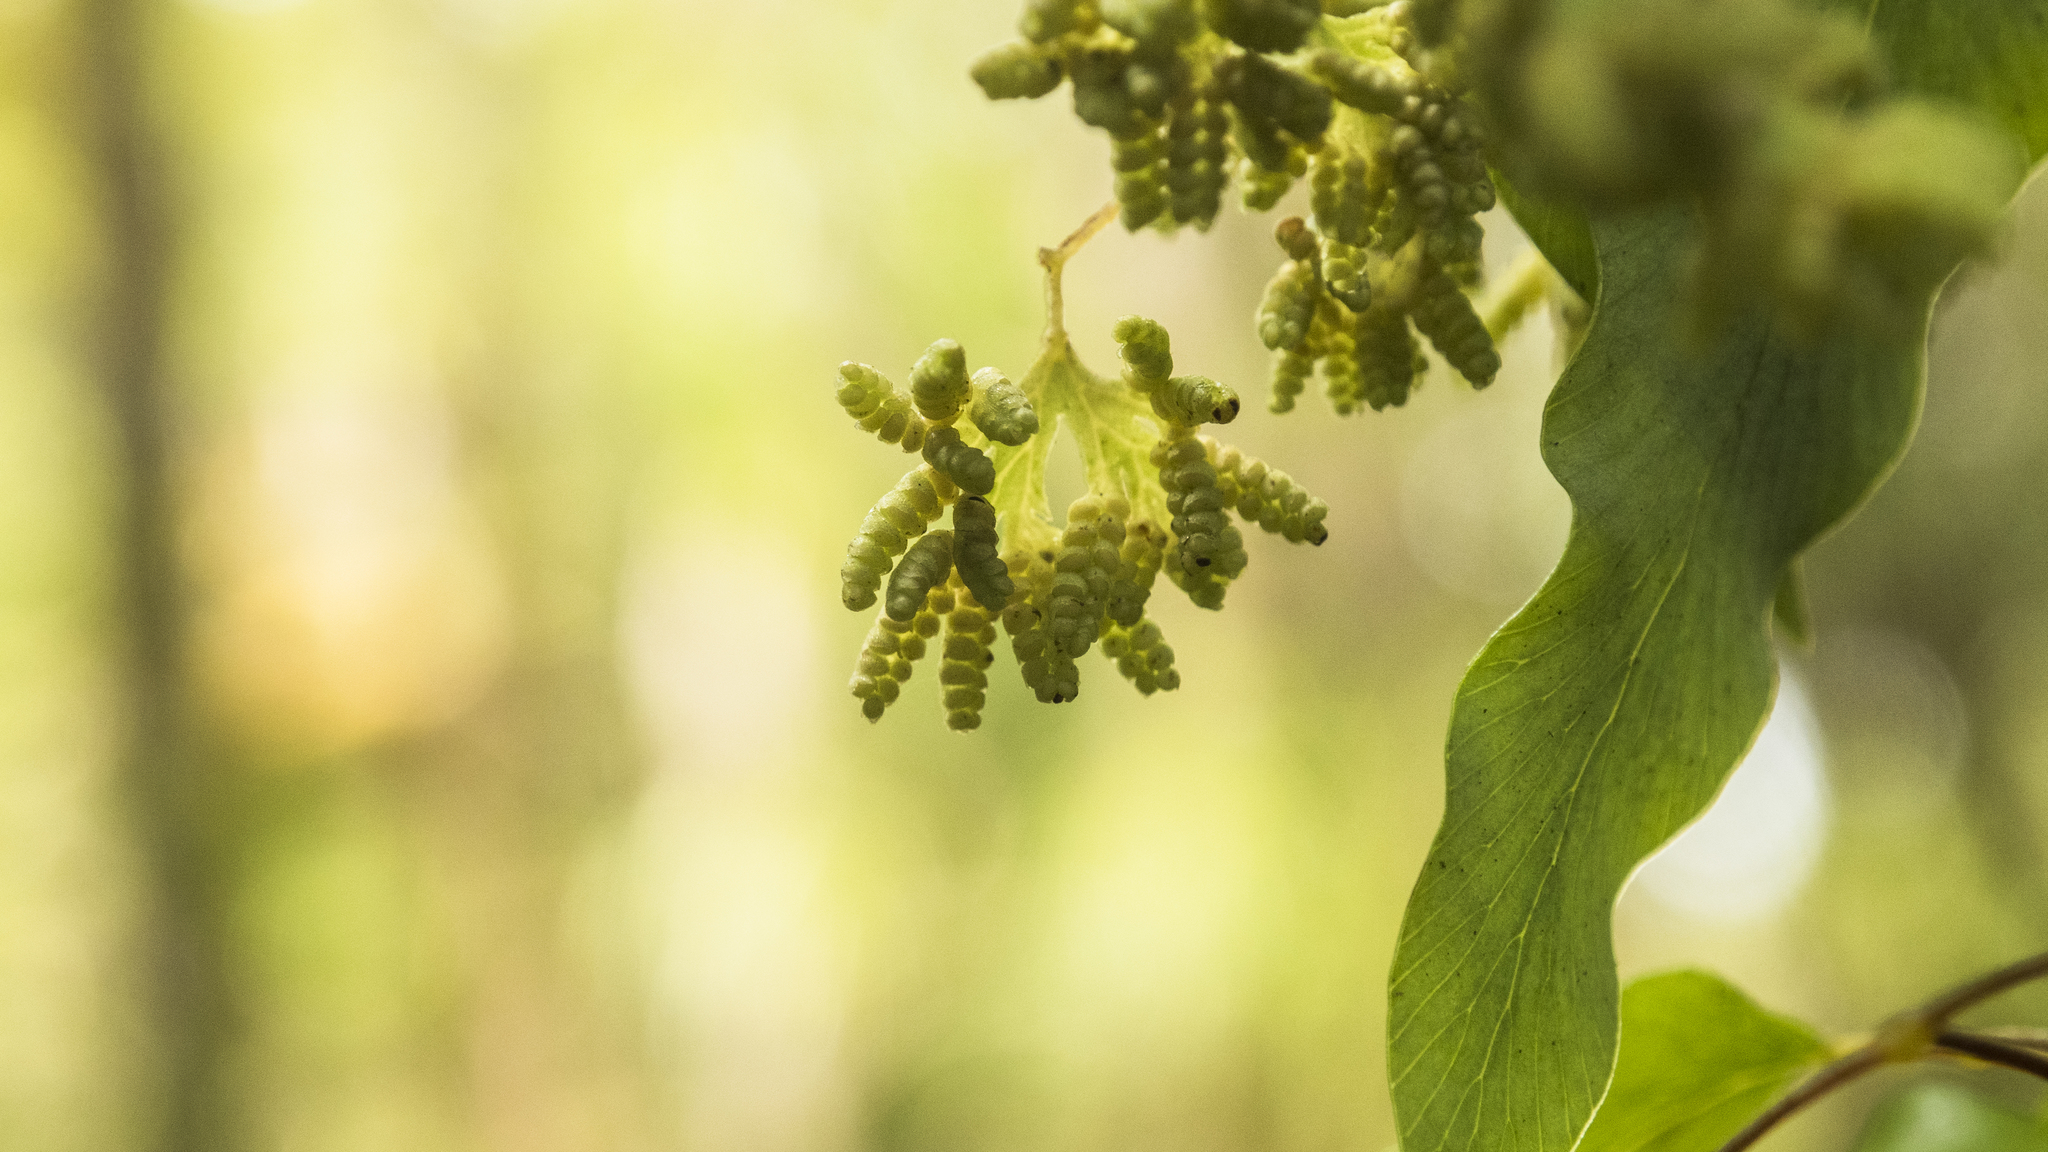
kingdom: Plantae
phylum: Tracheophyta
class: Polypodiopsida
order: Schizaeales
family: Lygodiaceae
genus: Lygodium
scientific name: Lygodium articulatum
